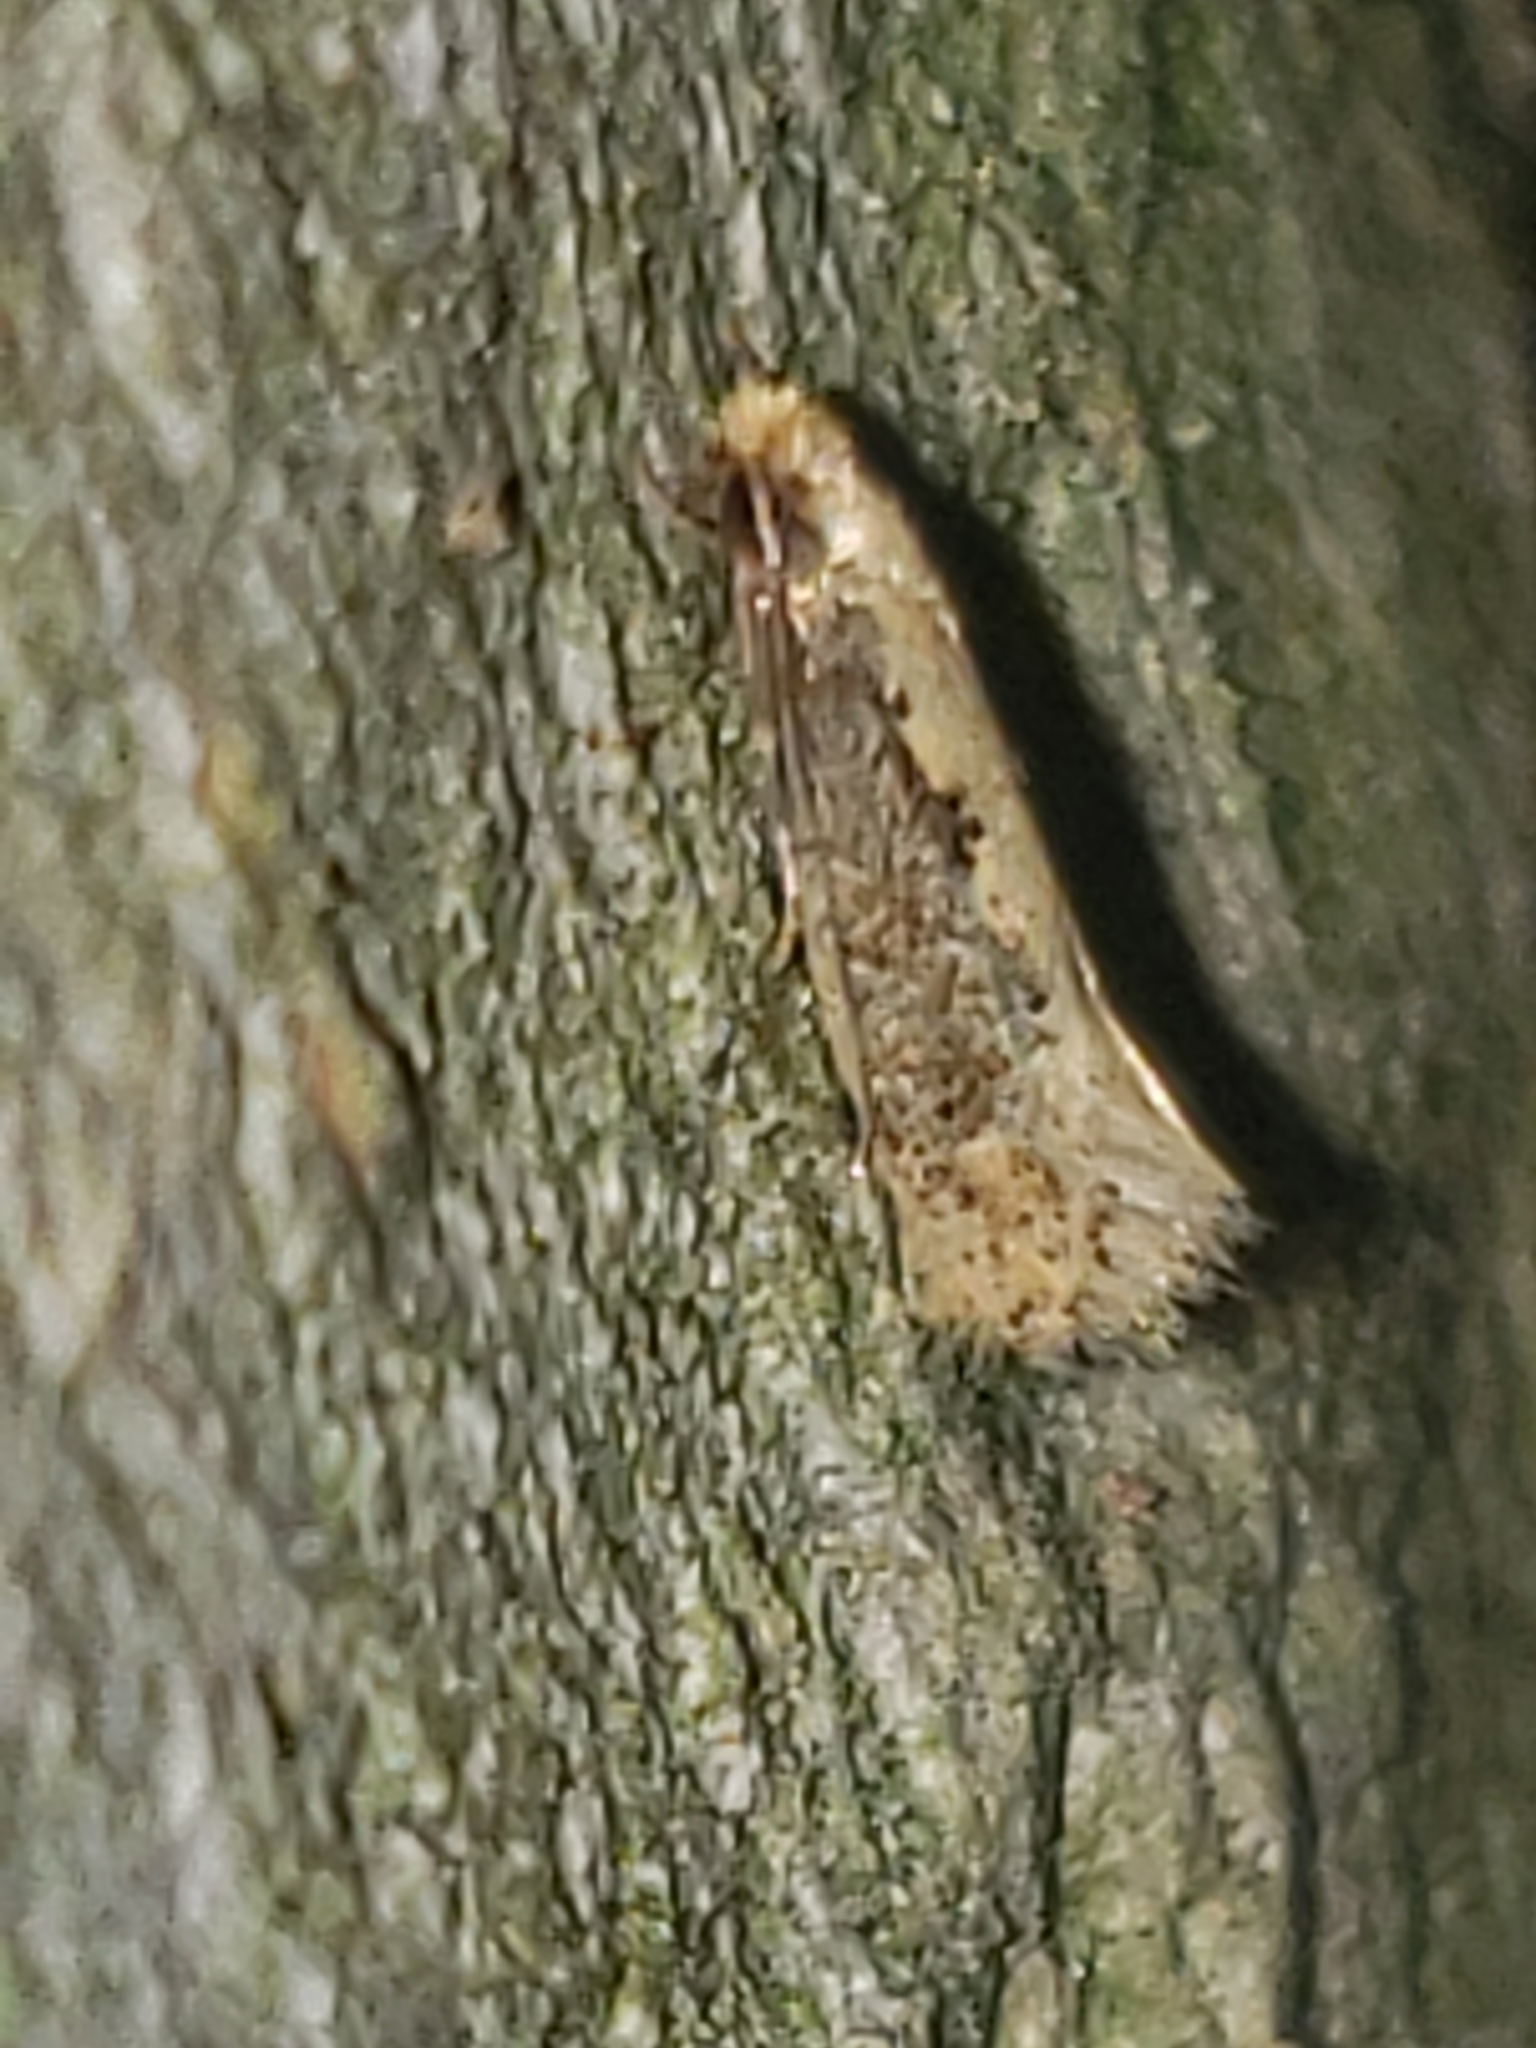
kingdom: Animalia
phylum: Arthropoda
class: Insecta
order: Lepidoptera
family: Tineidae
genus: Monopis
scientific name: Monopis crocicapitella
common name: Moth
